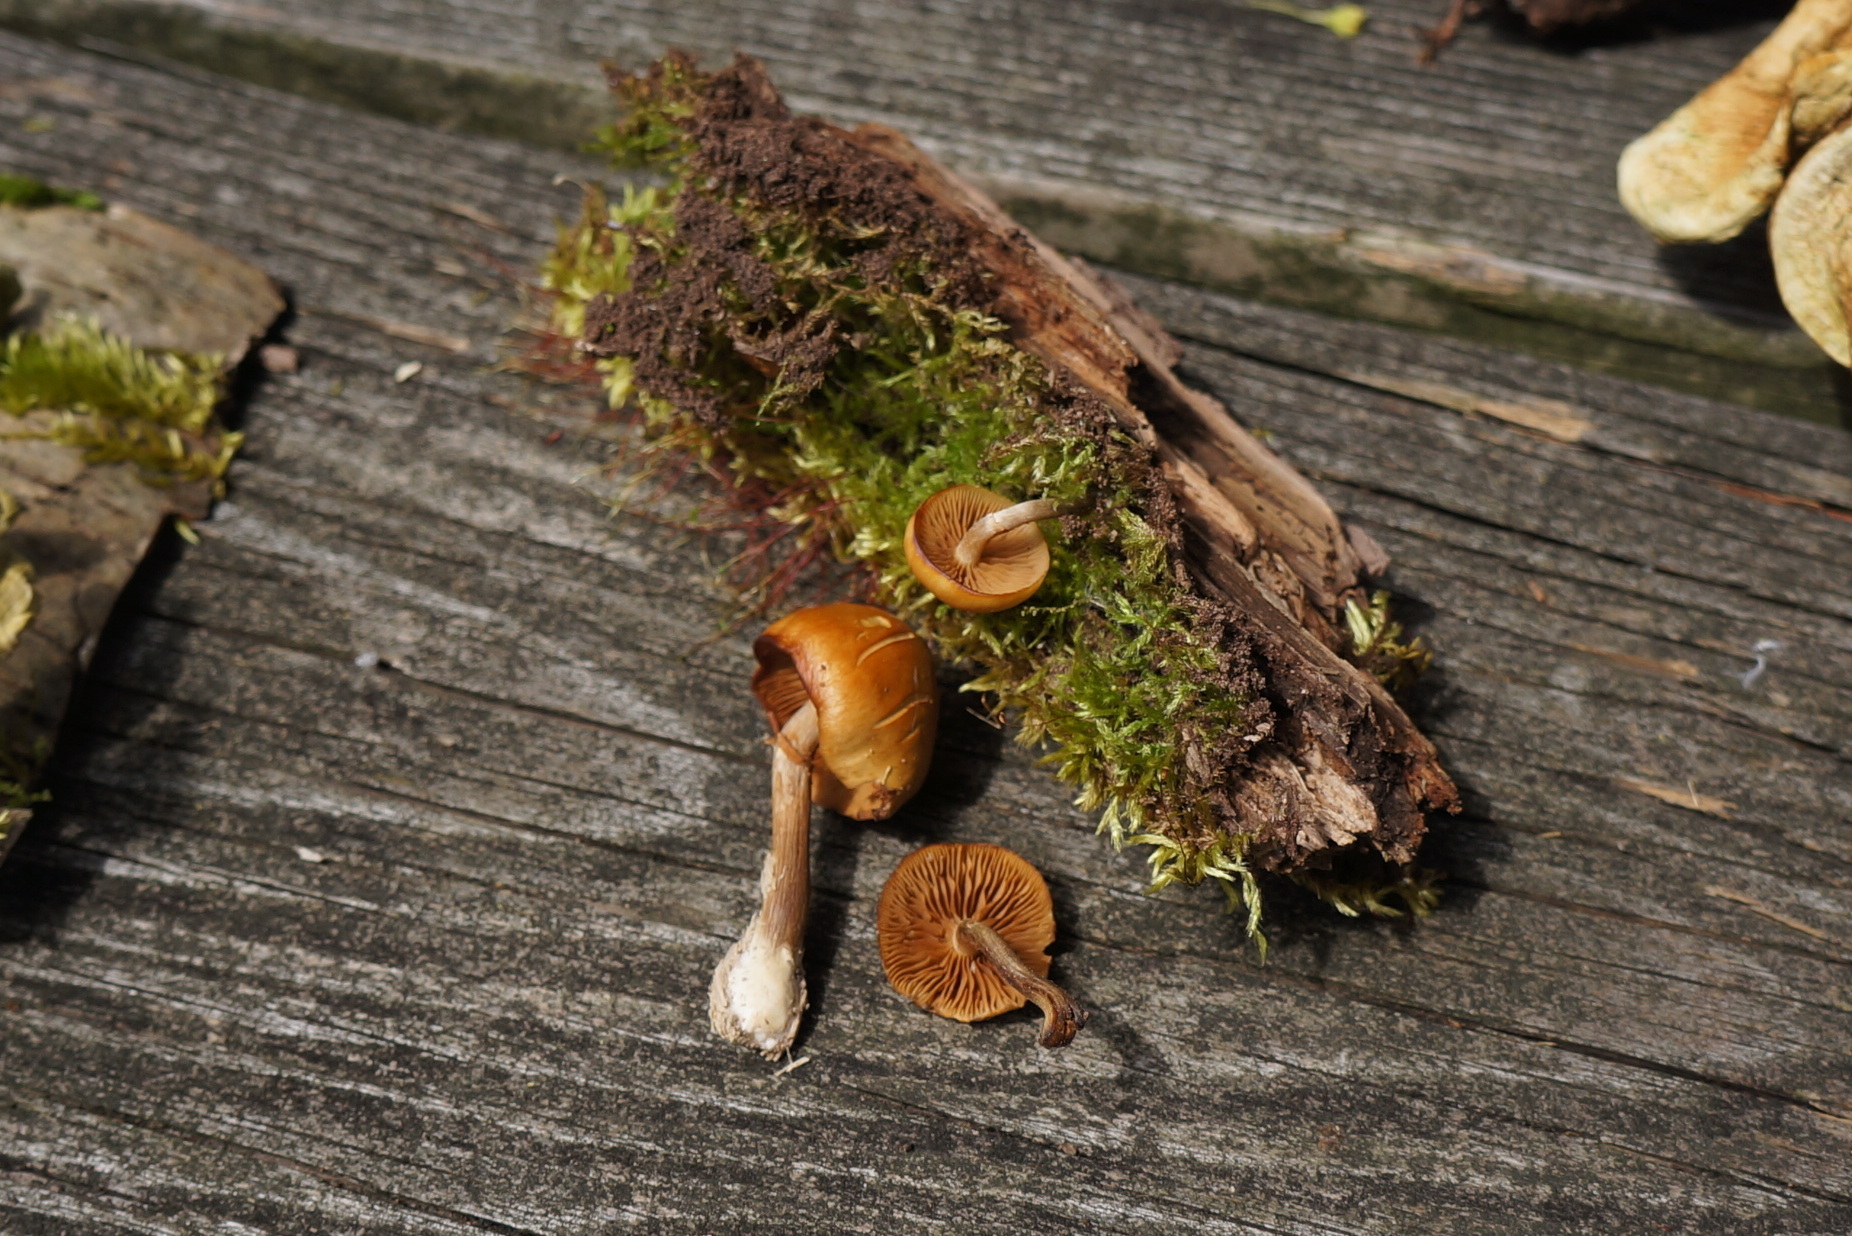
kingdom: Fungi
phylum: Basidiomycota
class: Agaricomycetes
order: Agaricales
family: Hymenogastraceae
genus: Galerina
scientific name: Galerina marginata
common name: Funeral bell
